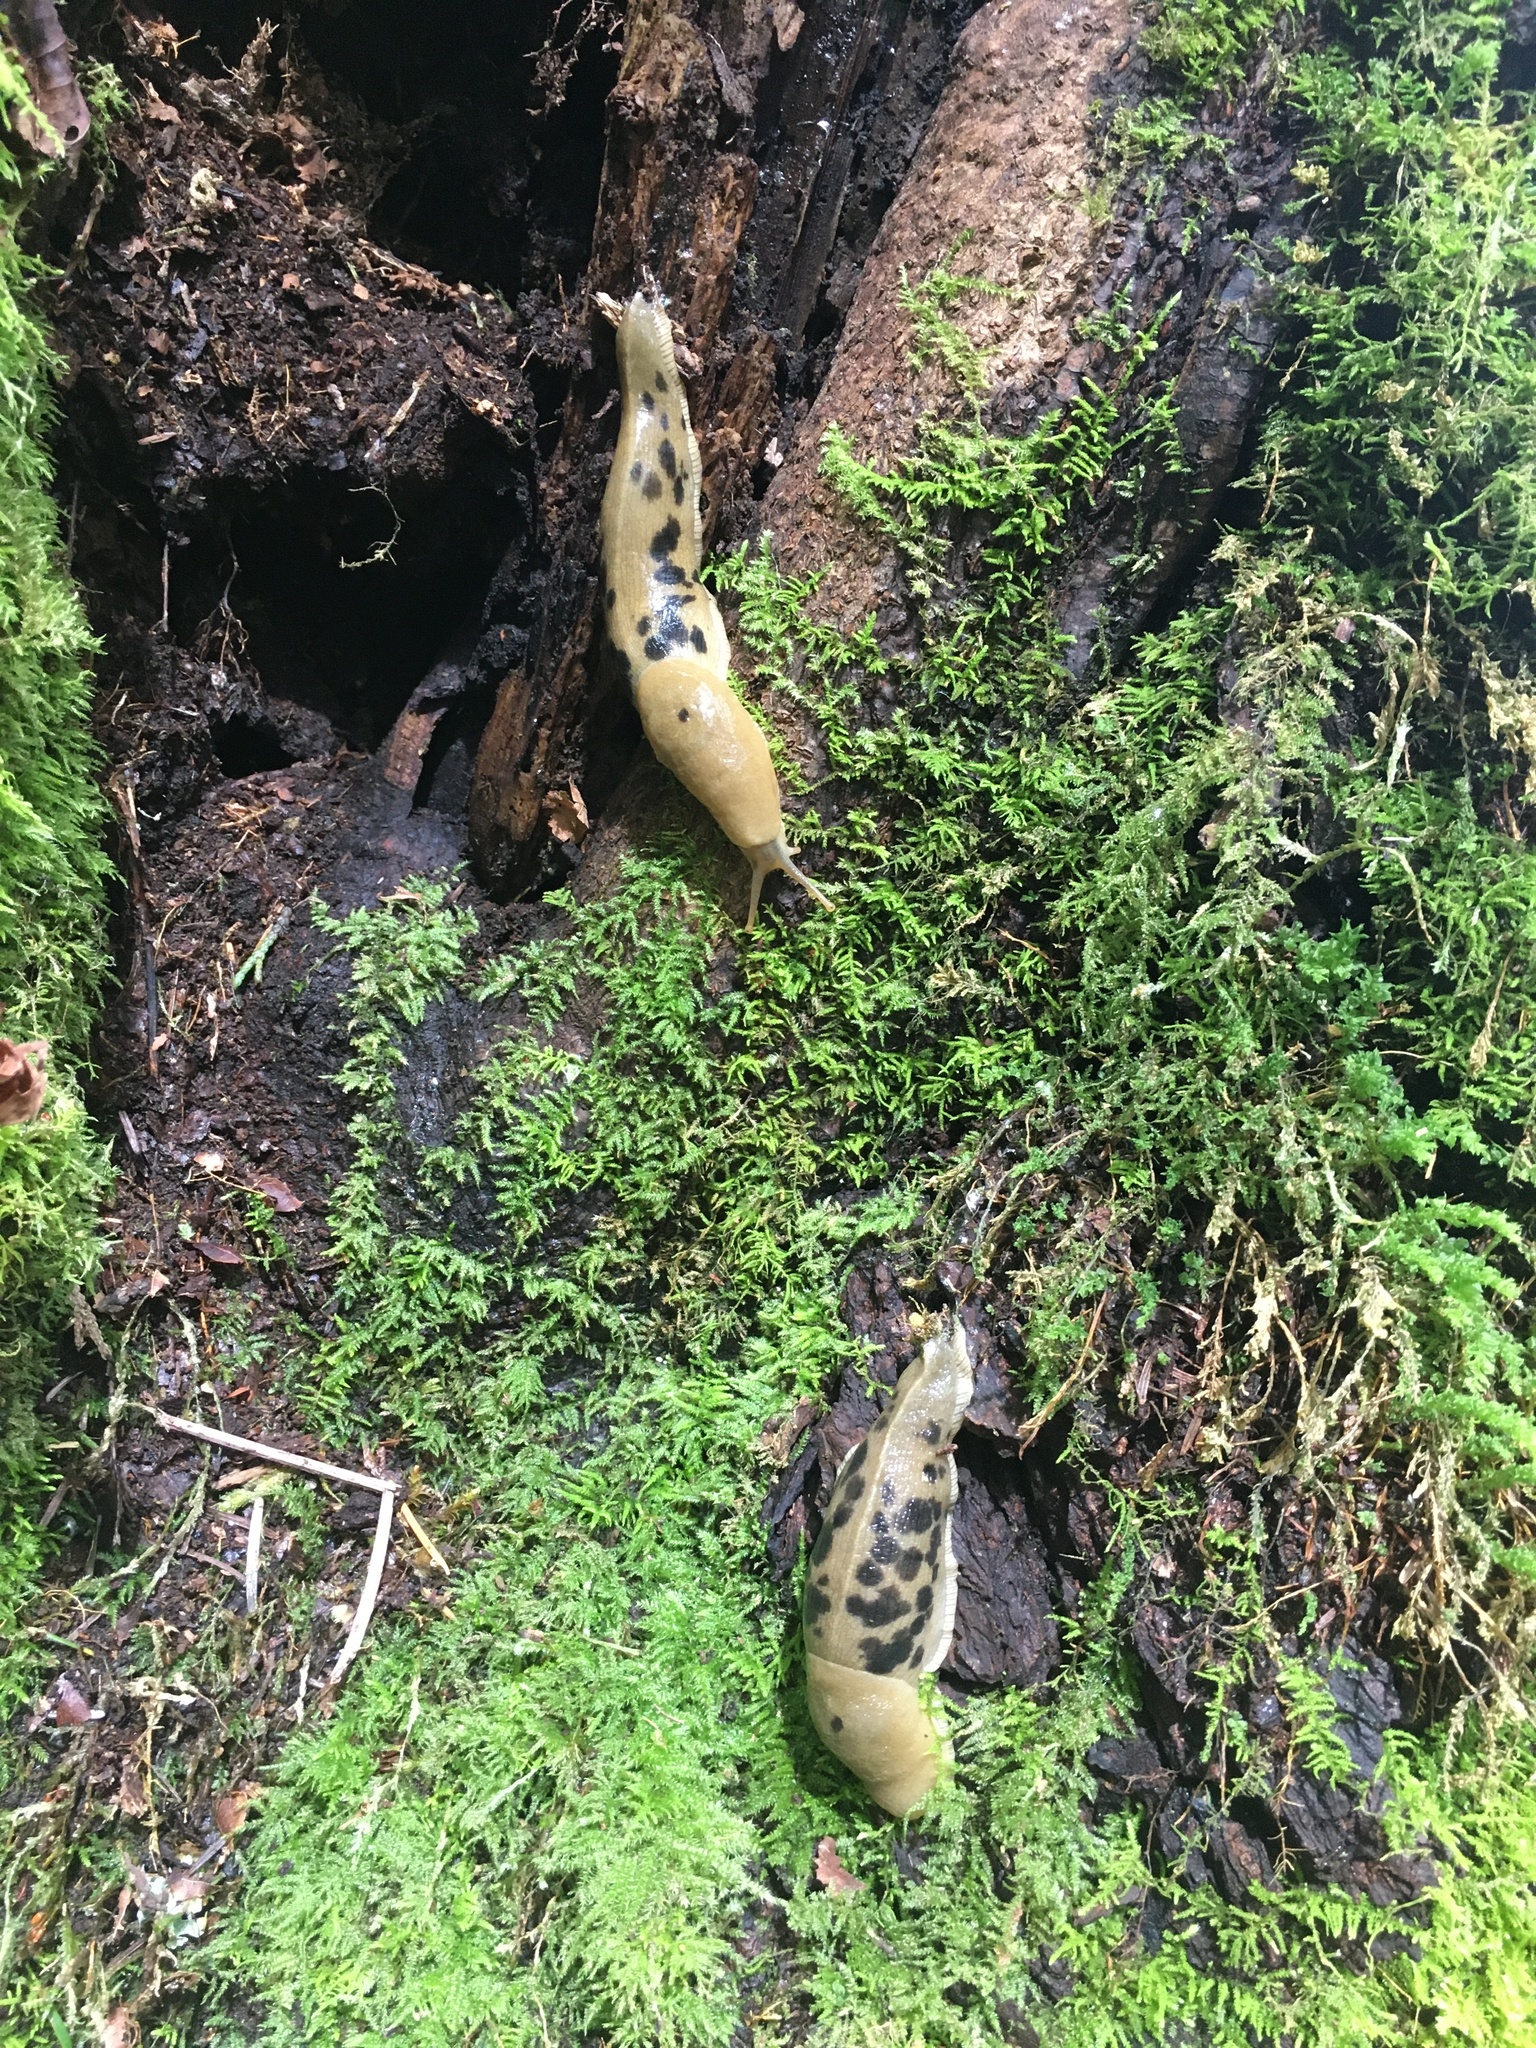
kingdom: Animalia
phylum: Mollusca
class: Gastropoda
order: Stylommatophora
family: Ariolimacidae
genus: Ariolimax
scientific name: Ariolimax columbianus
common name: Pacific banana slug
